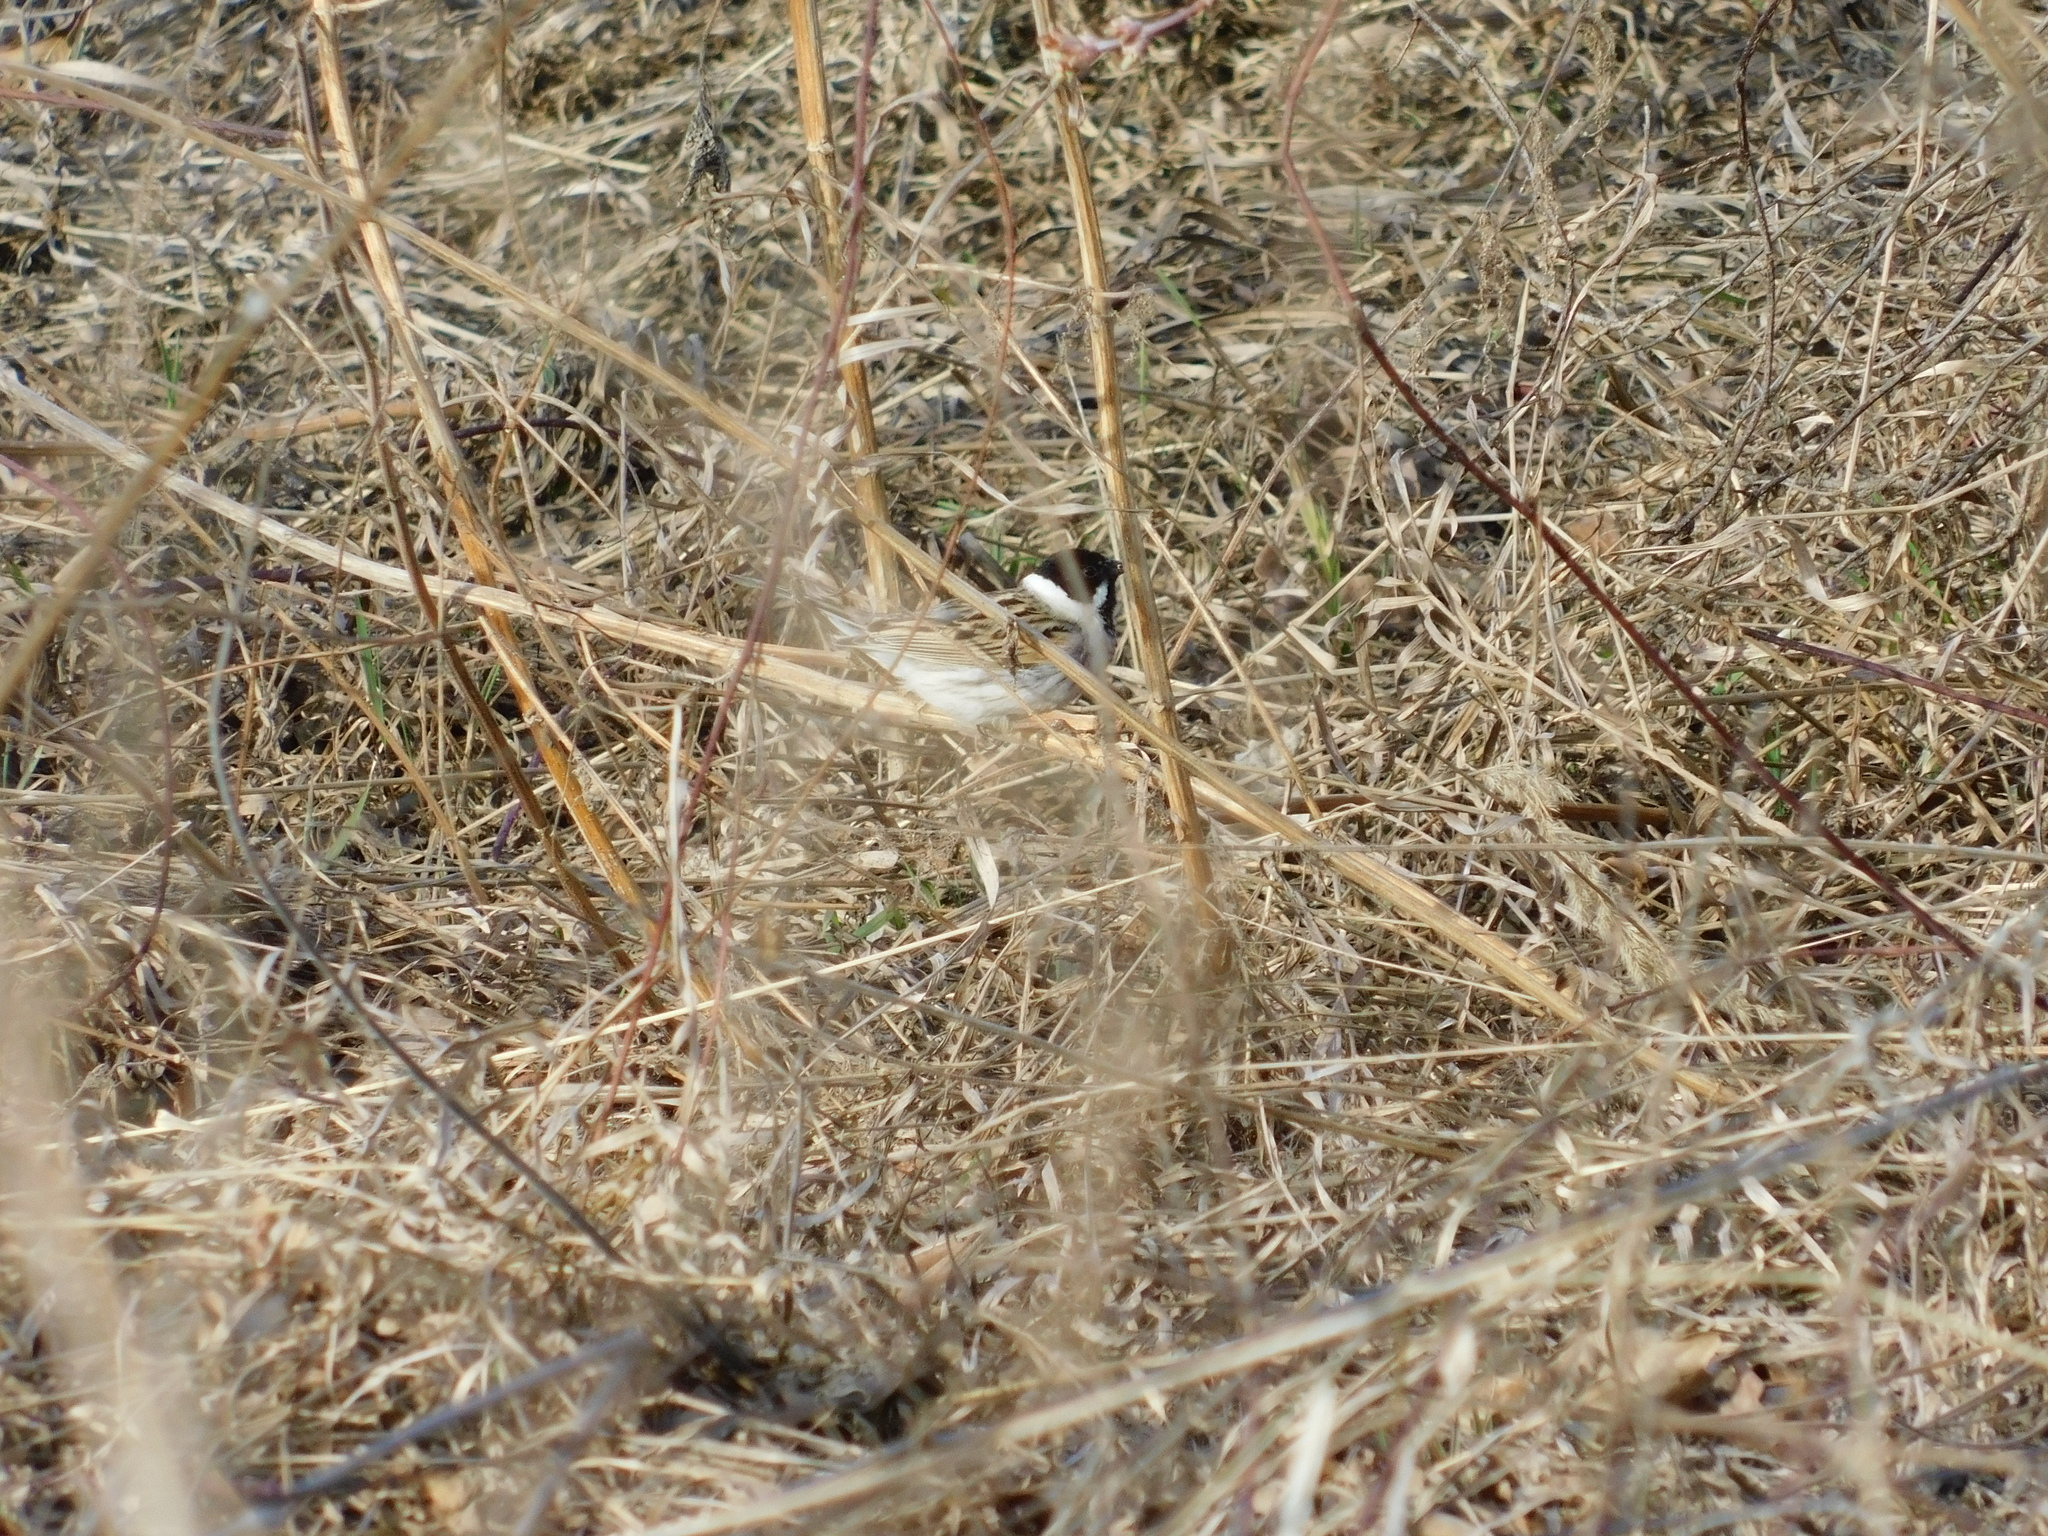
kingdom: Animalia
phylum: Chordata
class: Aves
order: Passeriformes
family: Emberizidae
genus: Emberiza
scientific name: Emberiza schoeniclus
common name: Reed bunting
